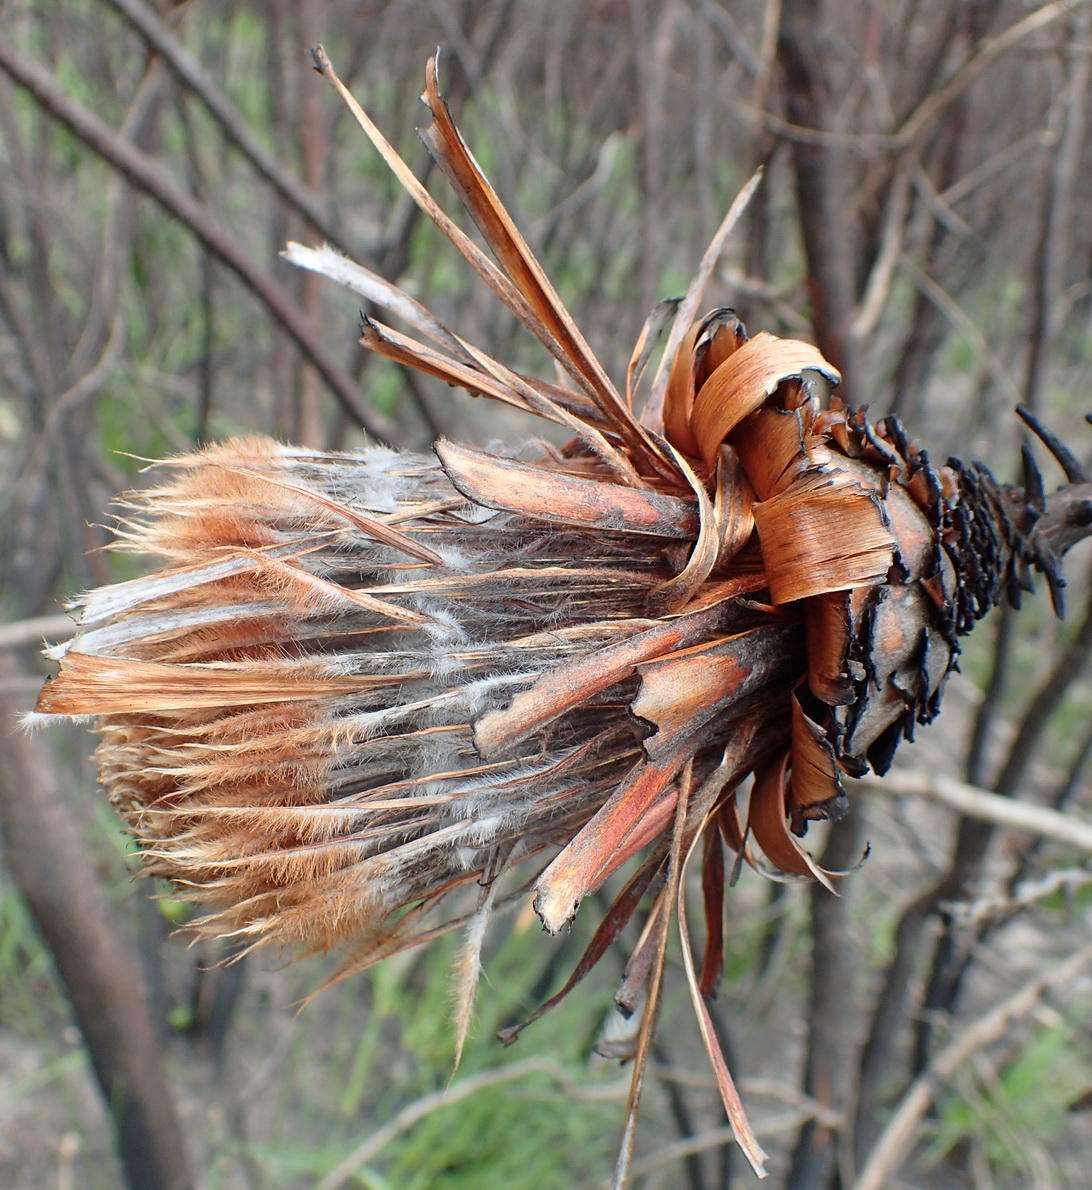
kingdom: Plantae
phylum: Tracheophyta
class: Magnoliopsida
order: Proteales
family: Proteaceae
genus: Protea
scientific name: Protea neriifolia
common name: Blue sugarbush
